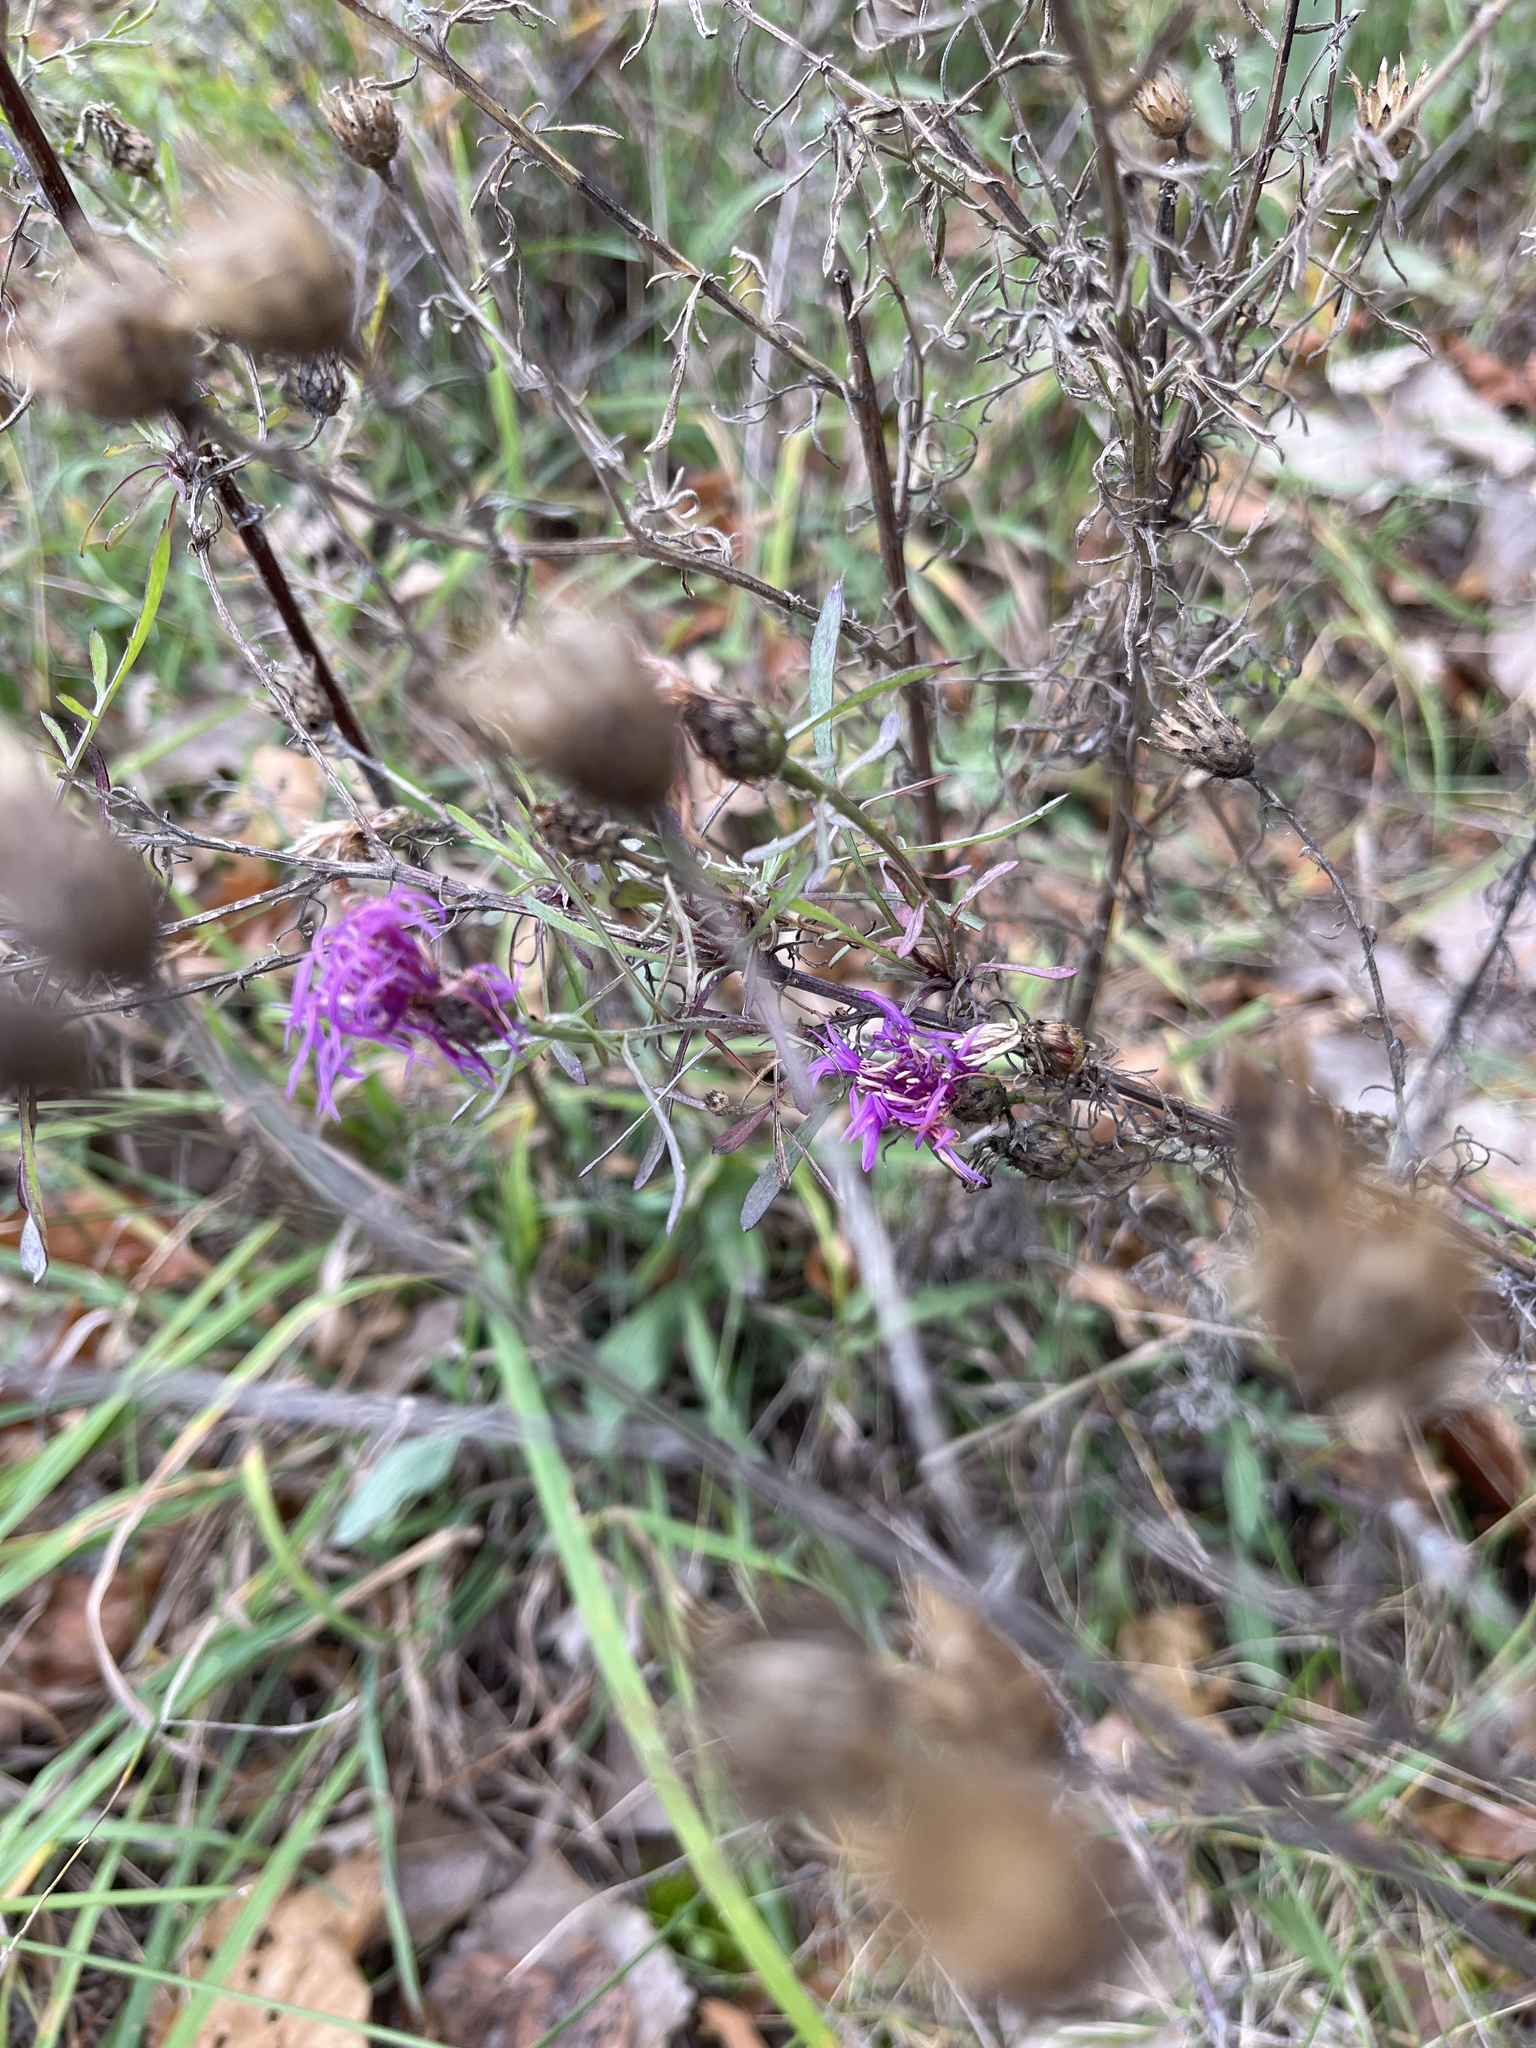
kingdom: Plantae
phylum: Tracheophyta
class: Magnoliopsida
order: Asterales
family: Asteraceae
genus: Centaurea
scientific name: Centaurea stoebe
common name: Spotted knapweed
